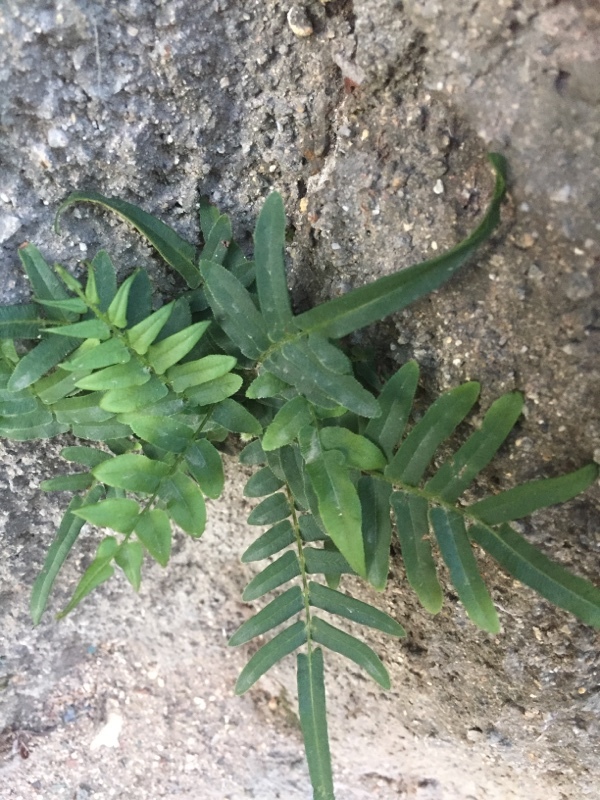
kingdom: Plantae
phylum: Tracheophyta
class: Polypodiopsida
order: Polypodiales
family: Pteridaceae
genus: Pteris
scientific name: Pteris vittata
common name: Ladder brake
